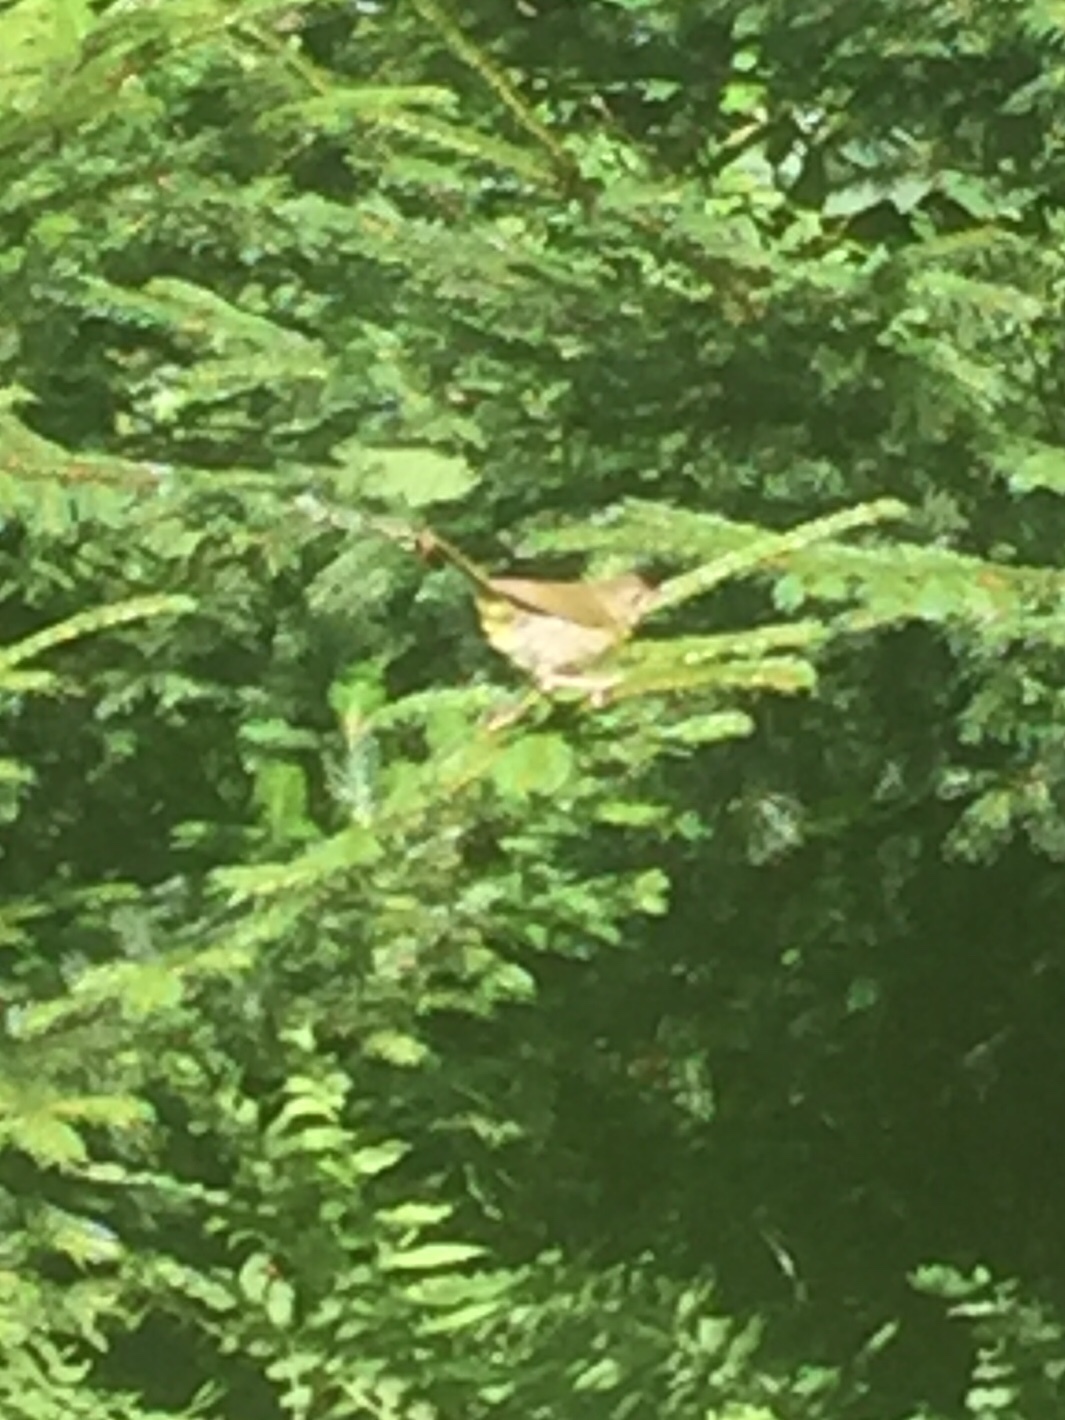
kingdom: Animalia
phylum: Chordata
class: Aves
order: Passeriformes
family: Parulidae
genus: Geothlypis
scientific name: Geothlypis trichas
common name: Common yellowthroat
